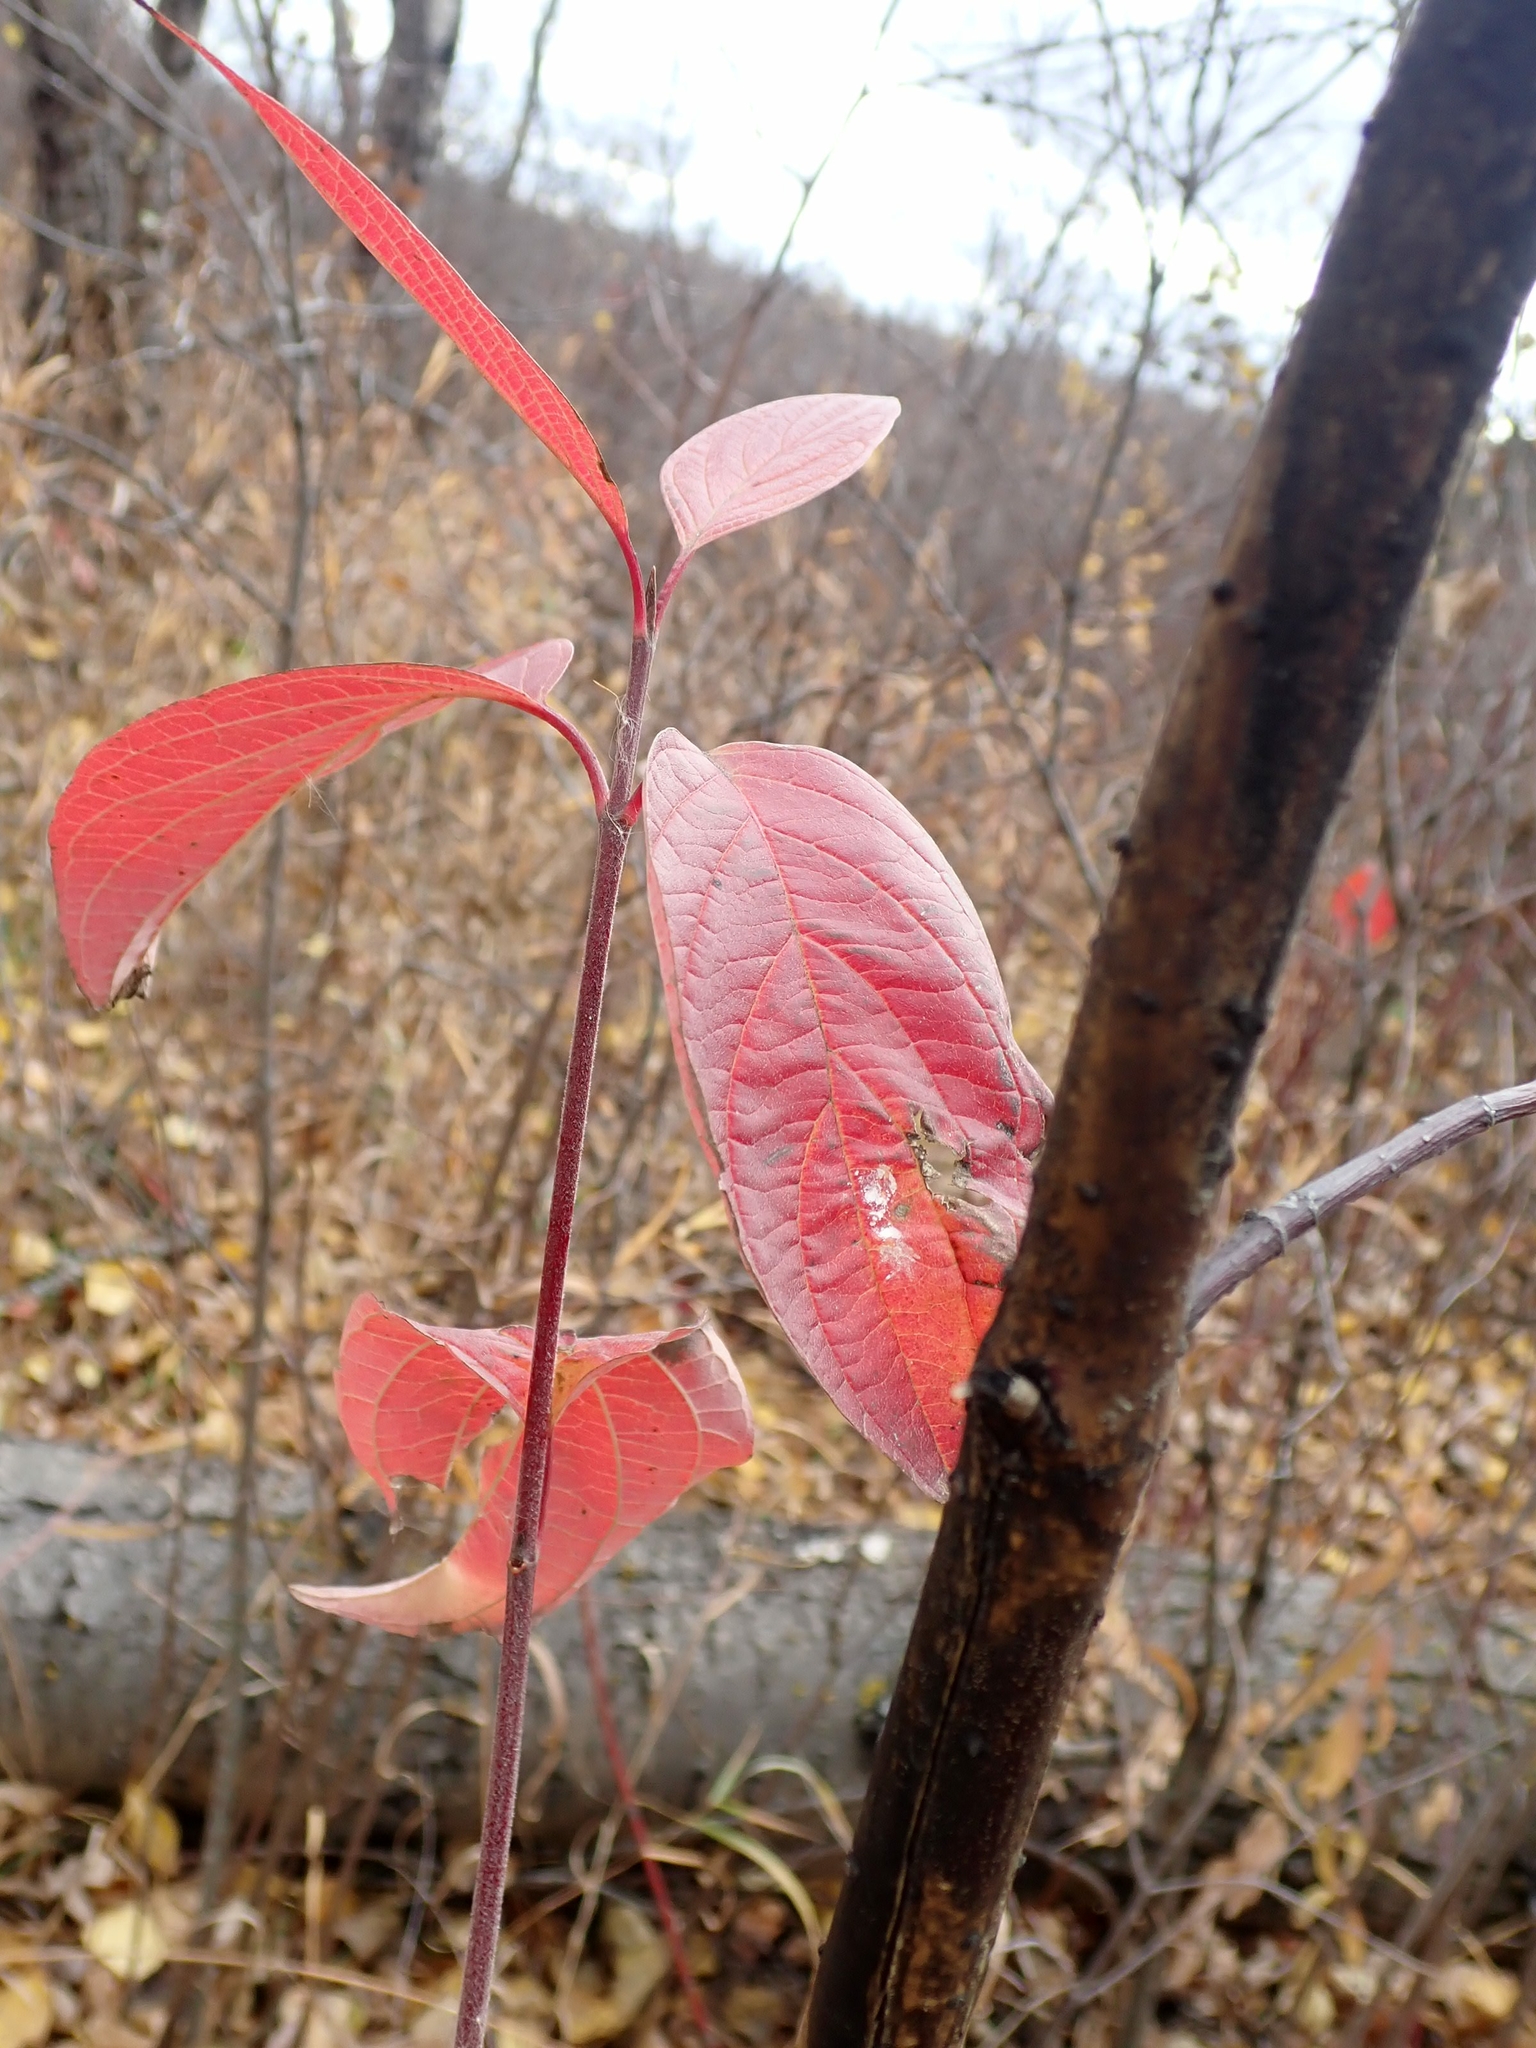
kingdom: Plantae
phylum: Tracheophyta
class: Magnoliopsida
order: Cornales
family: Cornaceae
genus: Cornus
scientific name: Cornus sericea
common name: Red-osier dogwood
